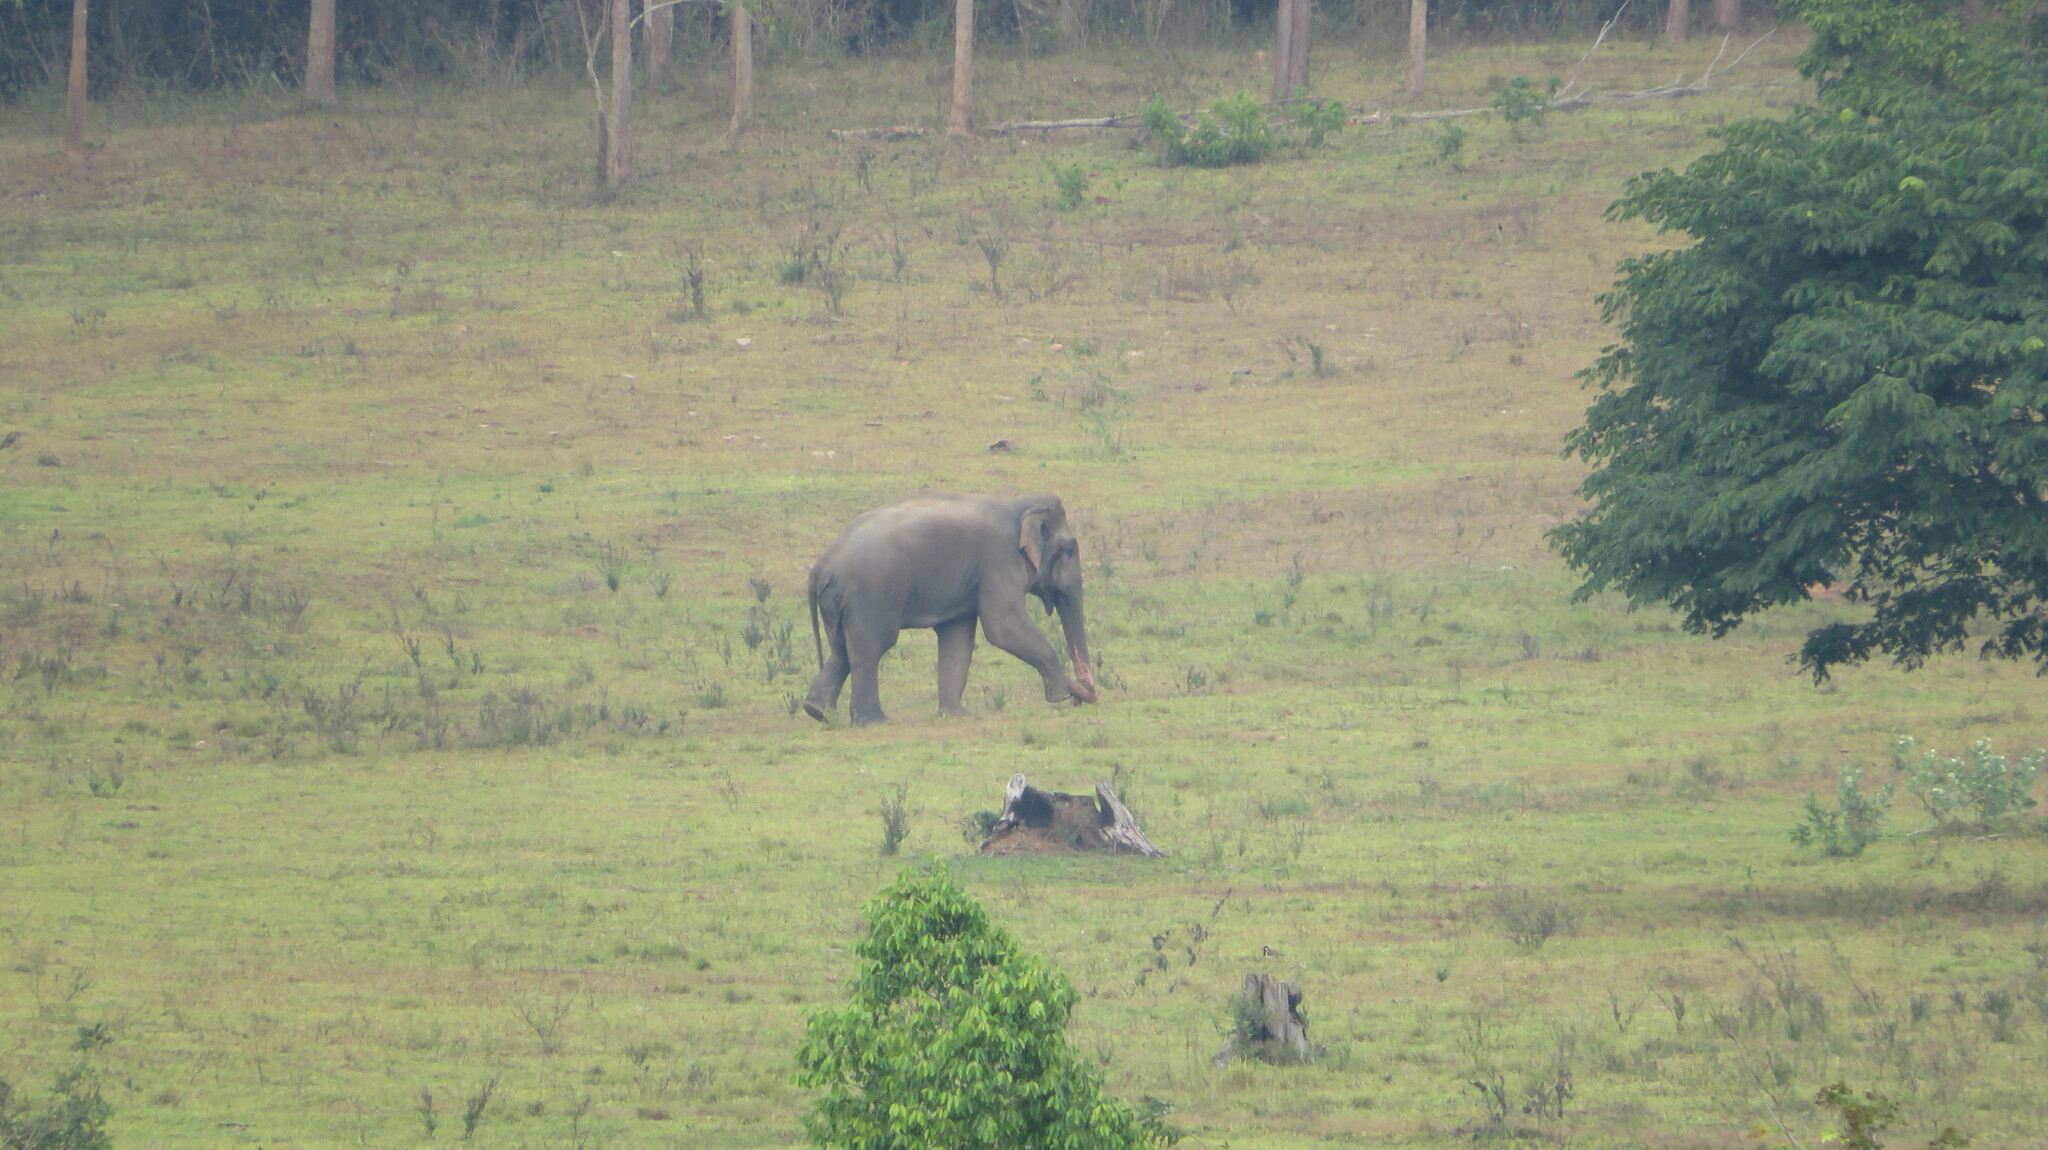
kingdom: Animalia
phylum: Chordata
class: Mammalia
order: Proboscidea
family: Elephantidae
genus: Elephas
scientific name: Elephas maximus
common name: Asian elephant
